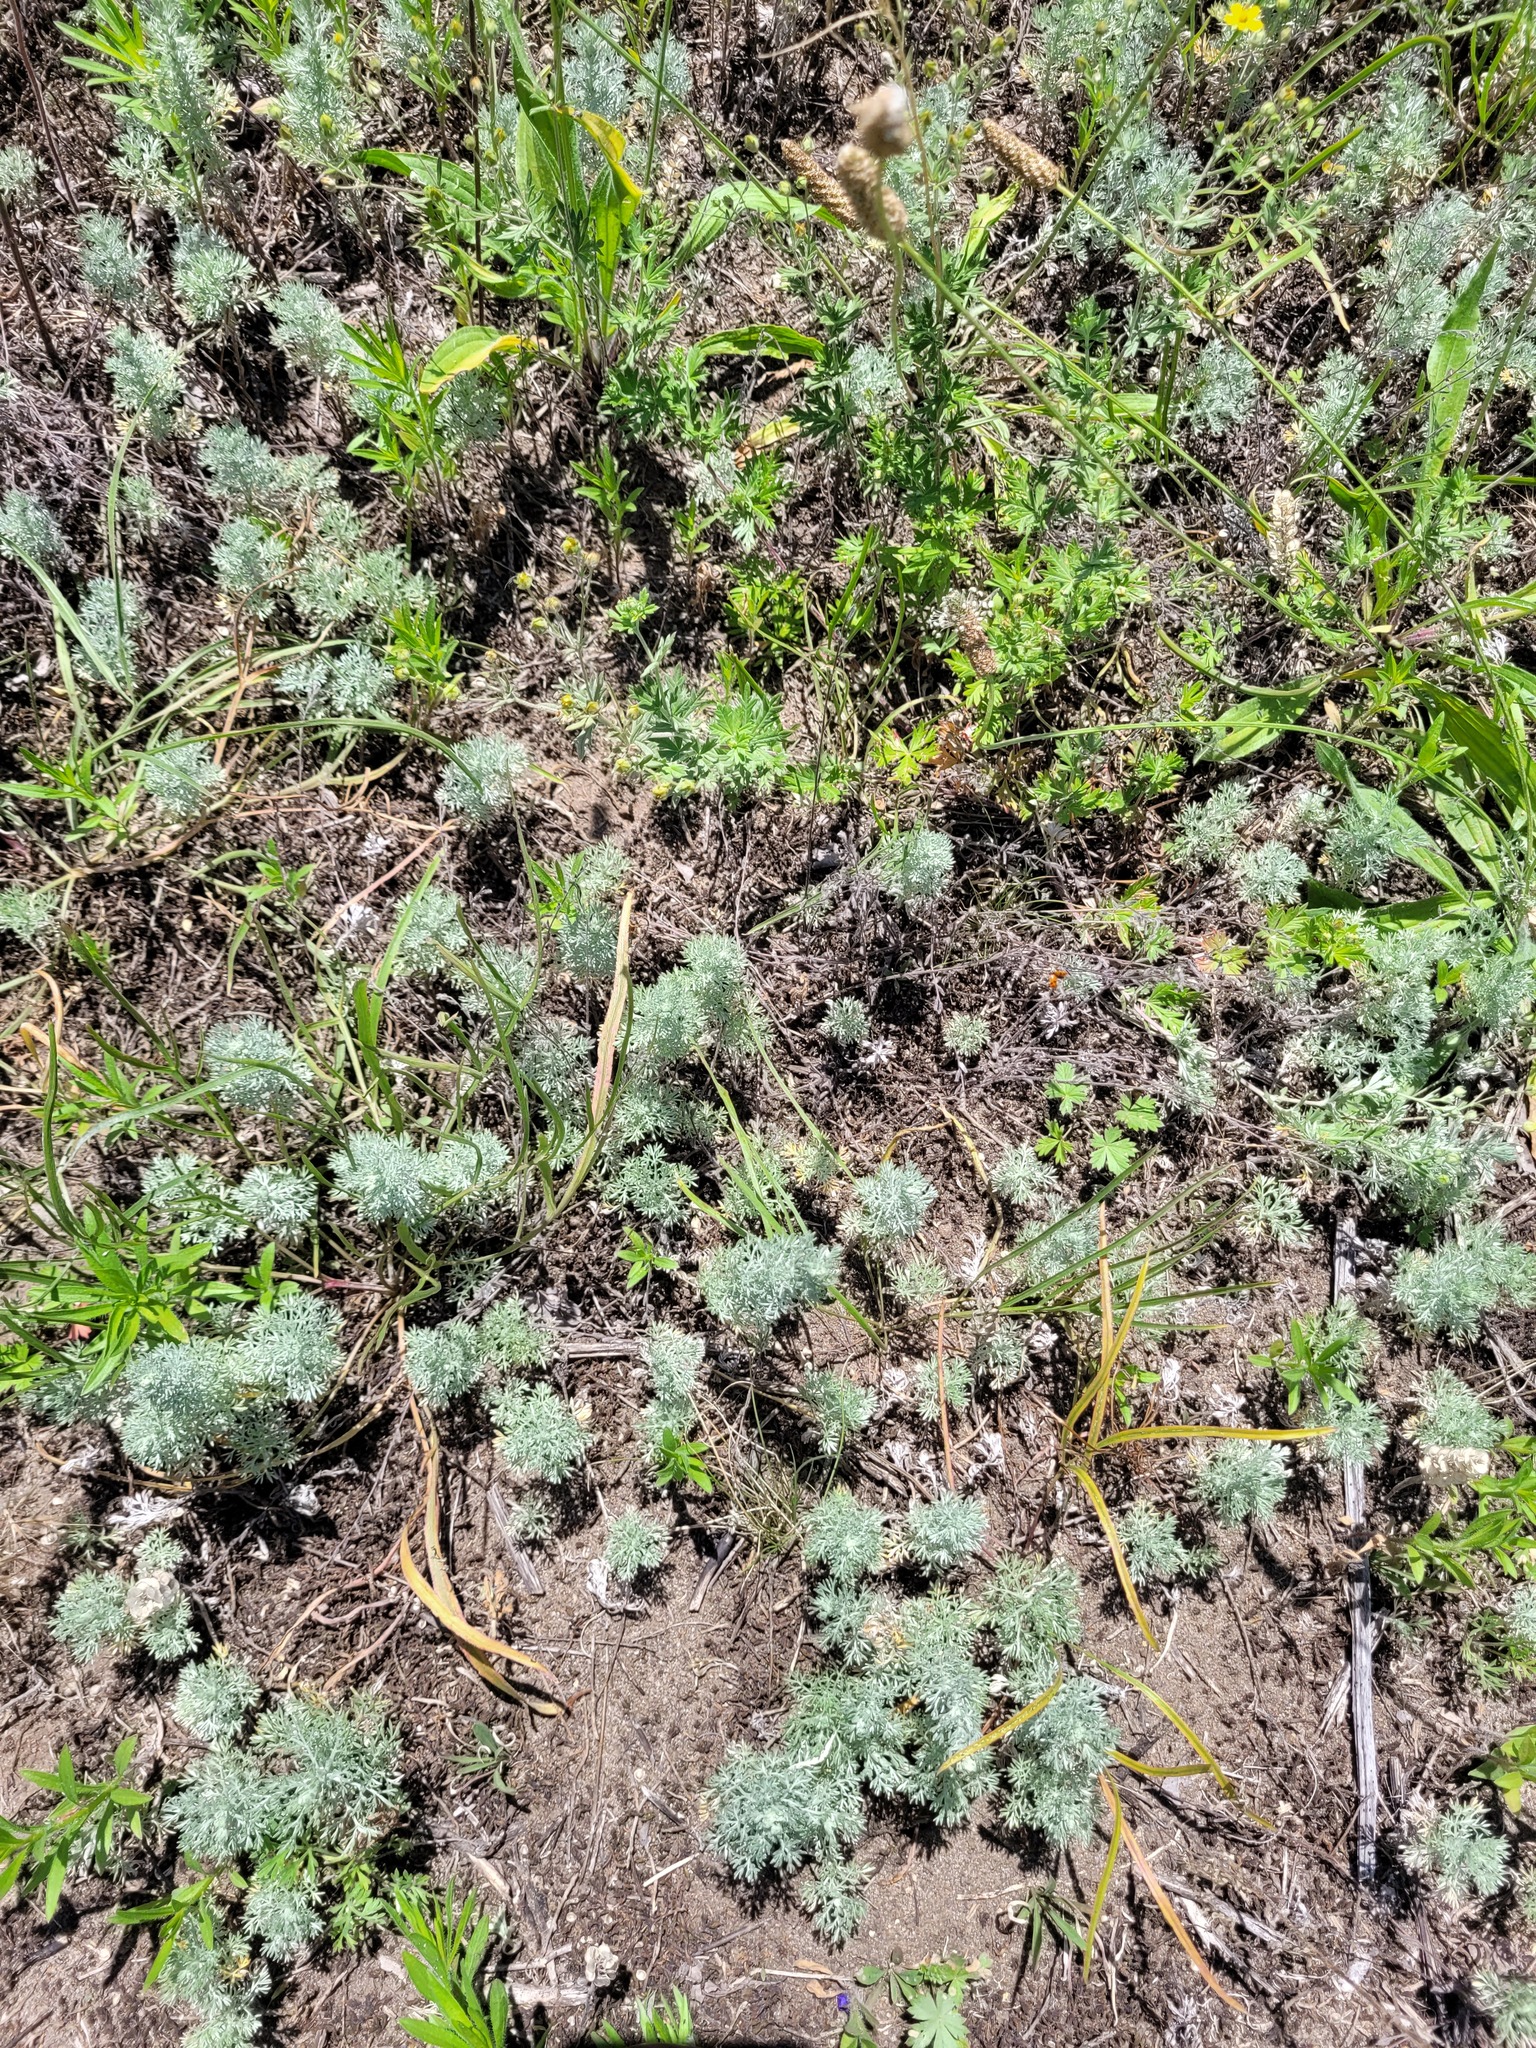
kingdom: Plantae
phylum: Tracheophyta
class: Magnoliopsida
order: Asterales
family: Asteraceae
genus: Artemisia
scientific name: Artemisia austriaca
